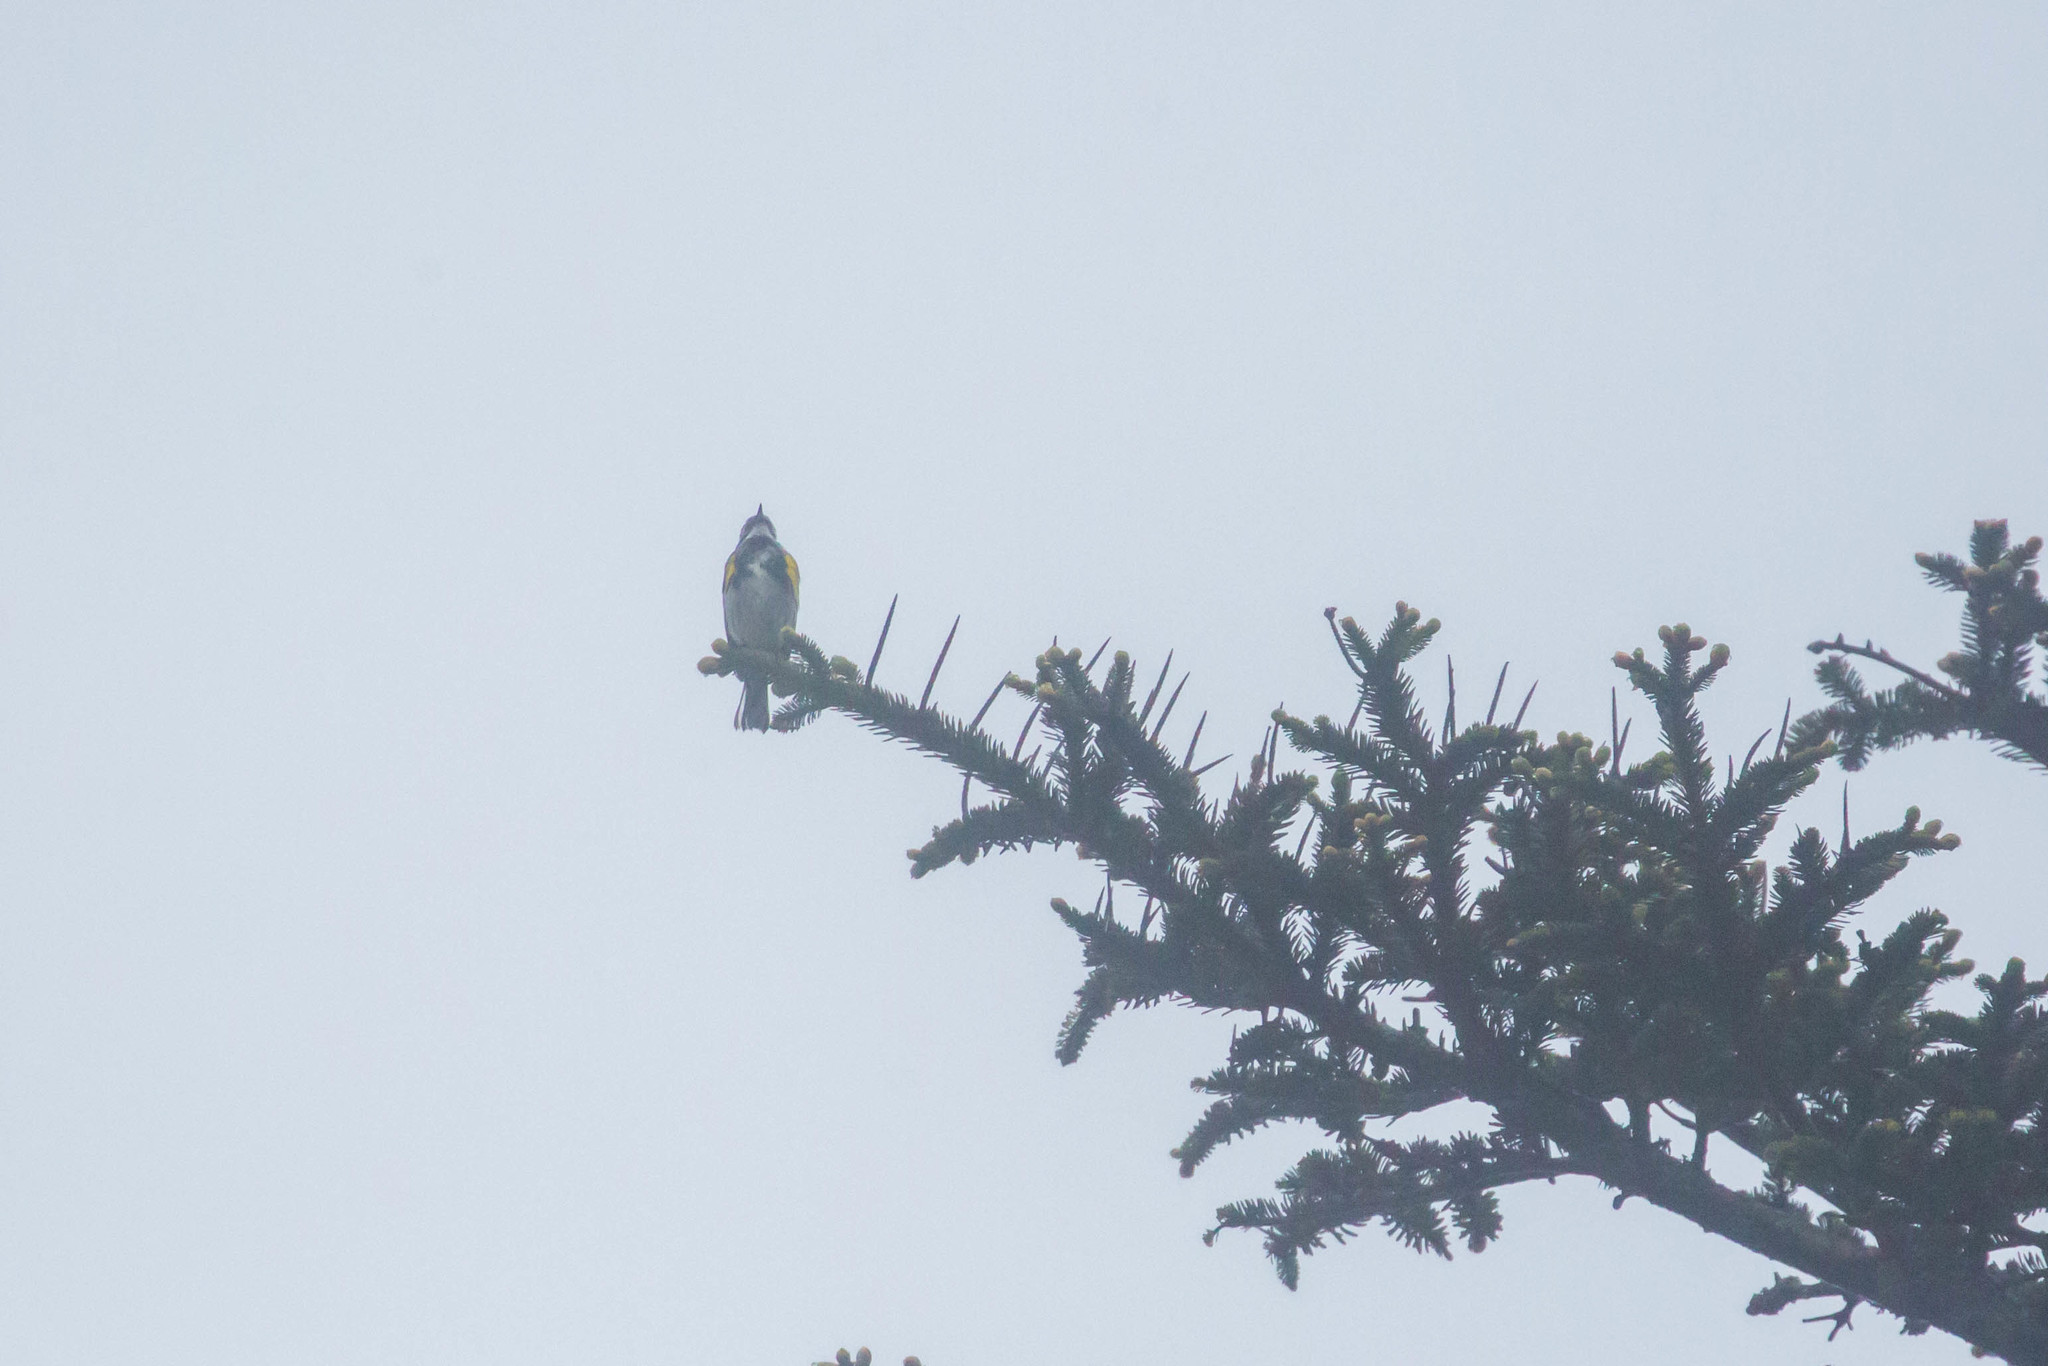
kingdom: Animalia
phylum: Chordata
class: Aves
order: Passeriformes
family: Parulidae
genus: Setophaga
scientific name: Setophaga coronata
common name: Myrtle warbler
